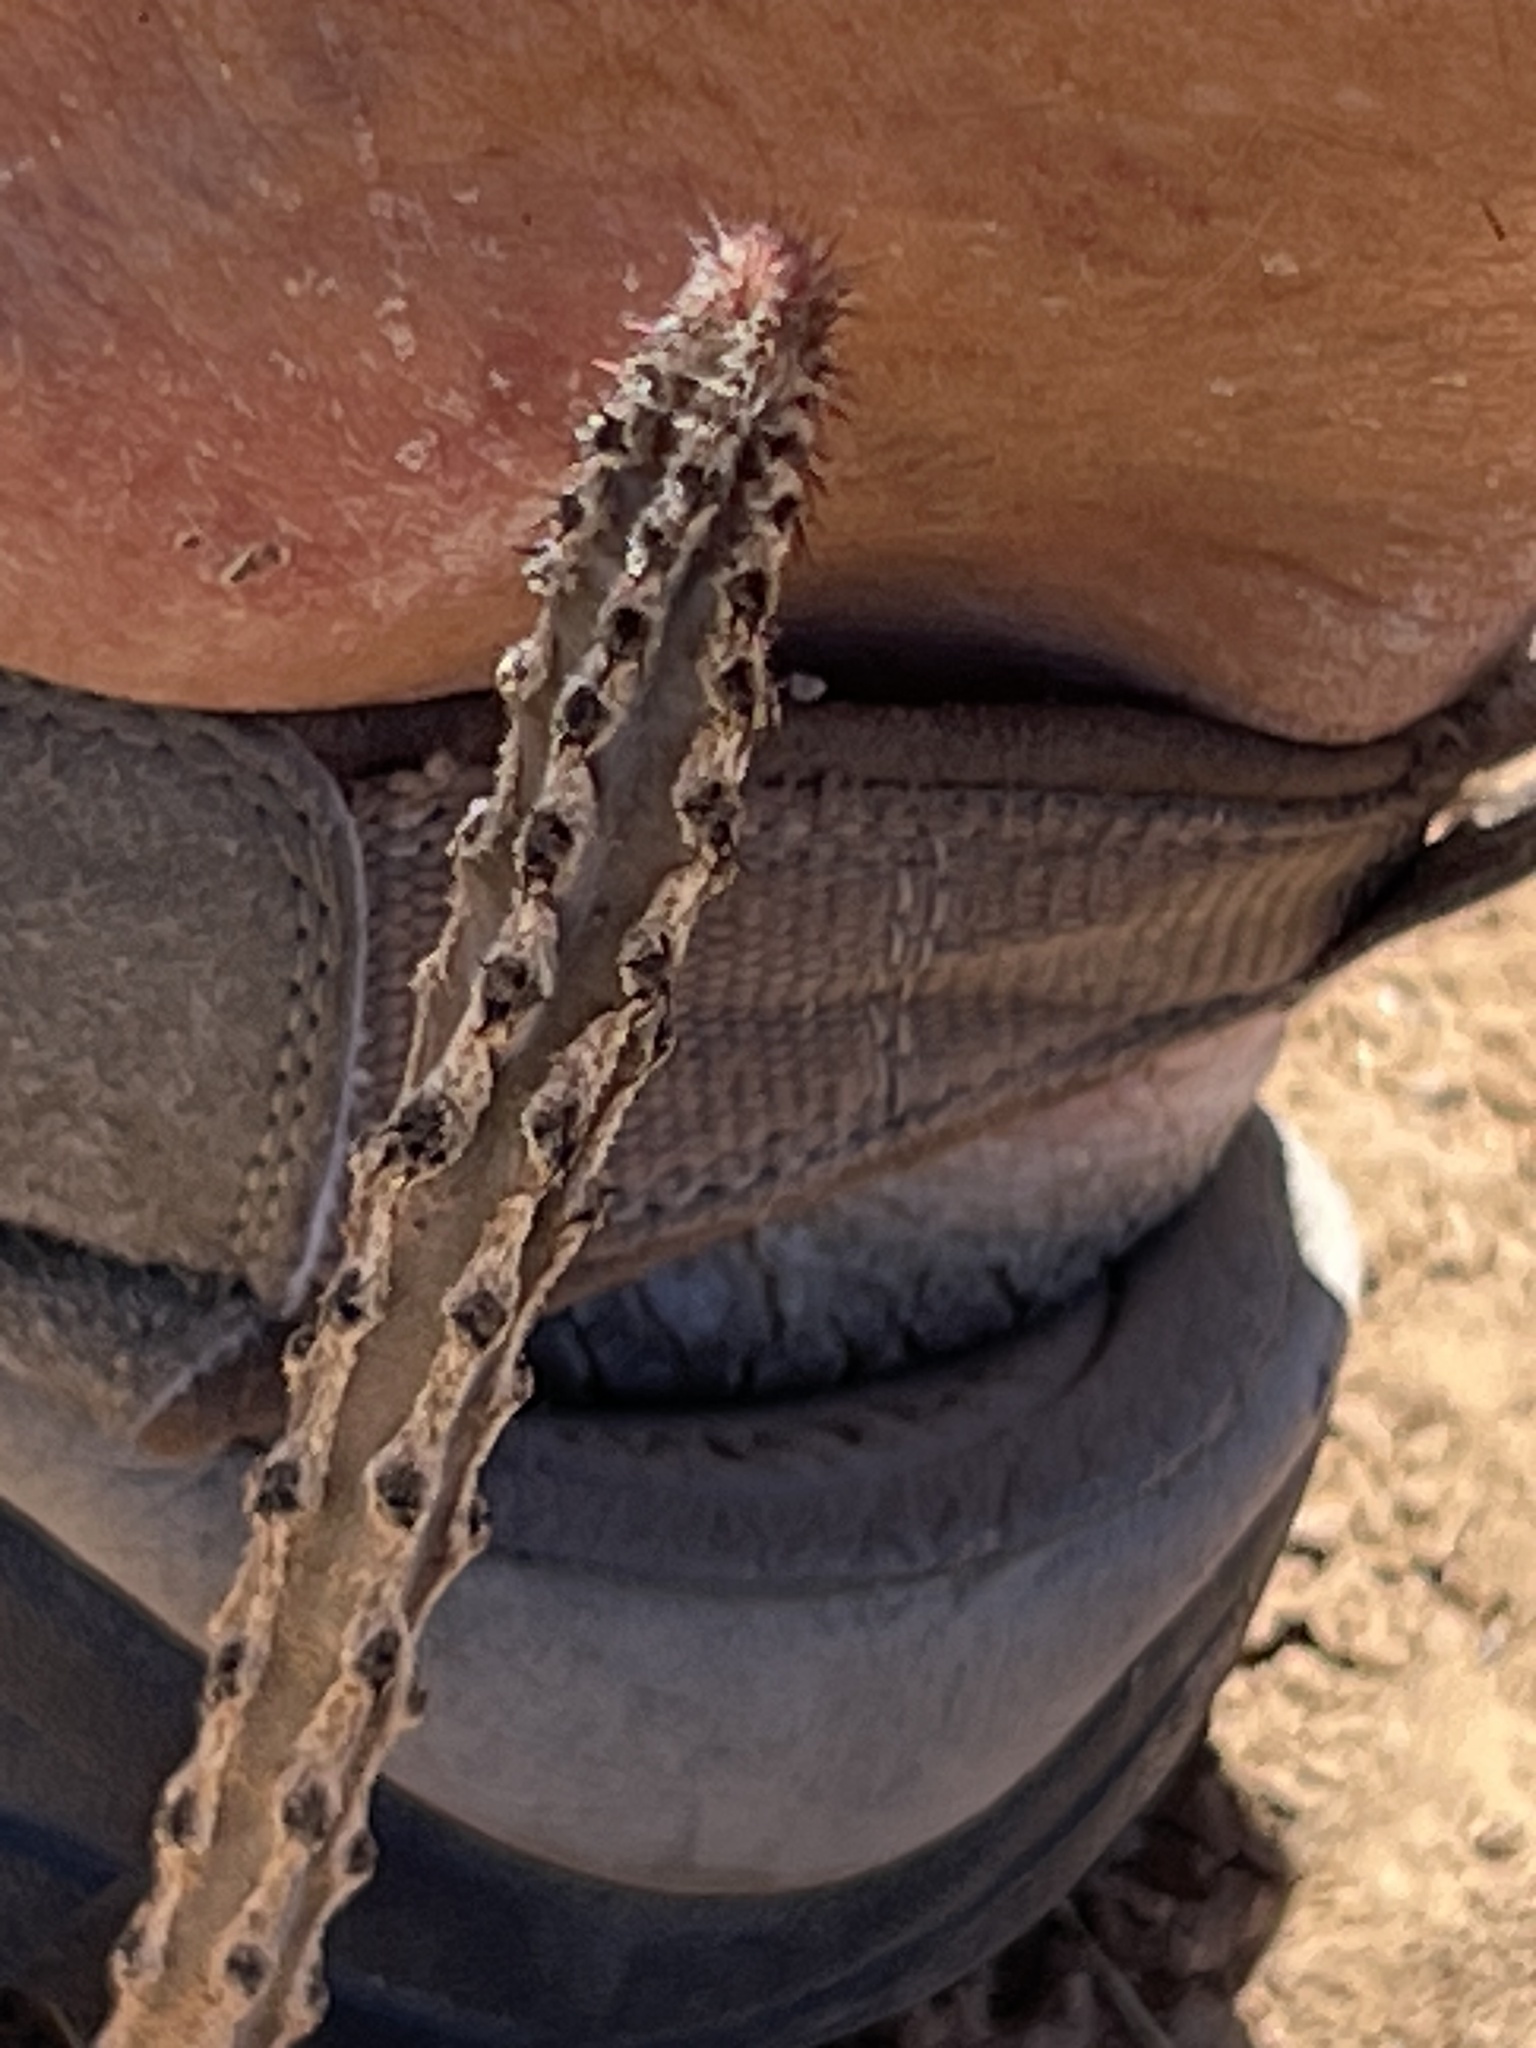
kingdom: Plantae
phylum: Tracheophyta
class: Magnoliopsida
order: Caryophyllales
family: Cactaceae
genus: Peniocereus
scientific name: Peniocereus greggii
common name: Desert night-blooming cereus
